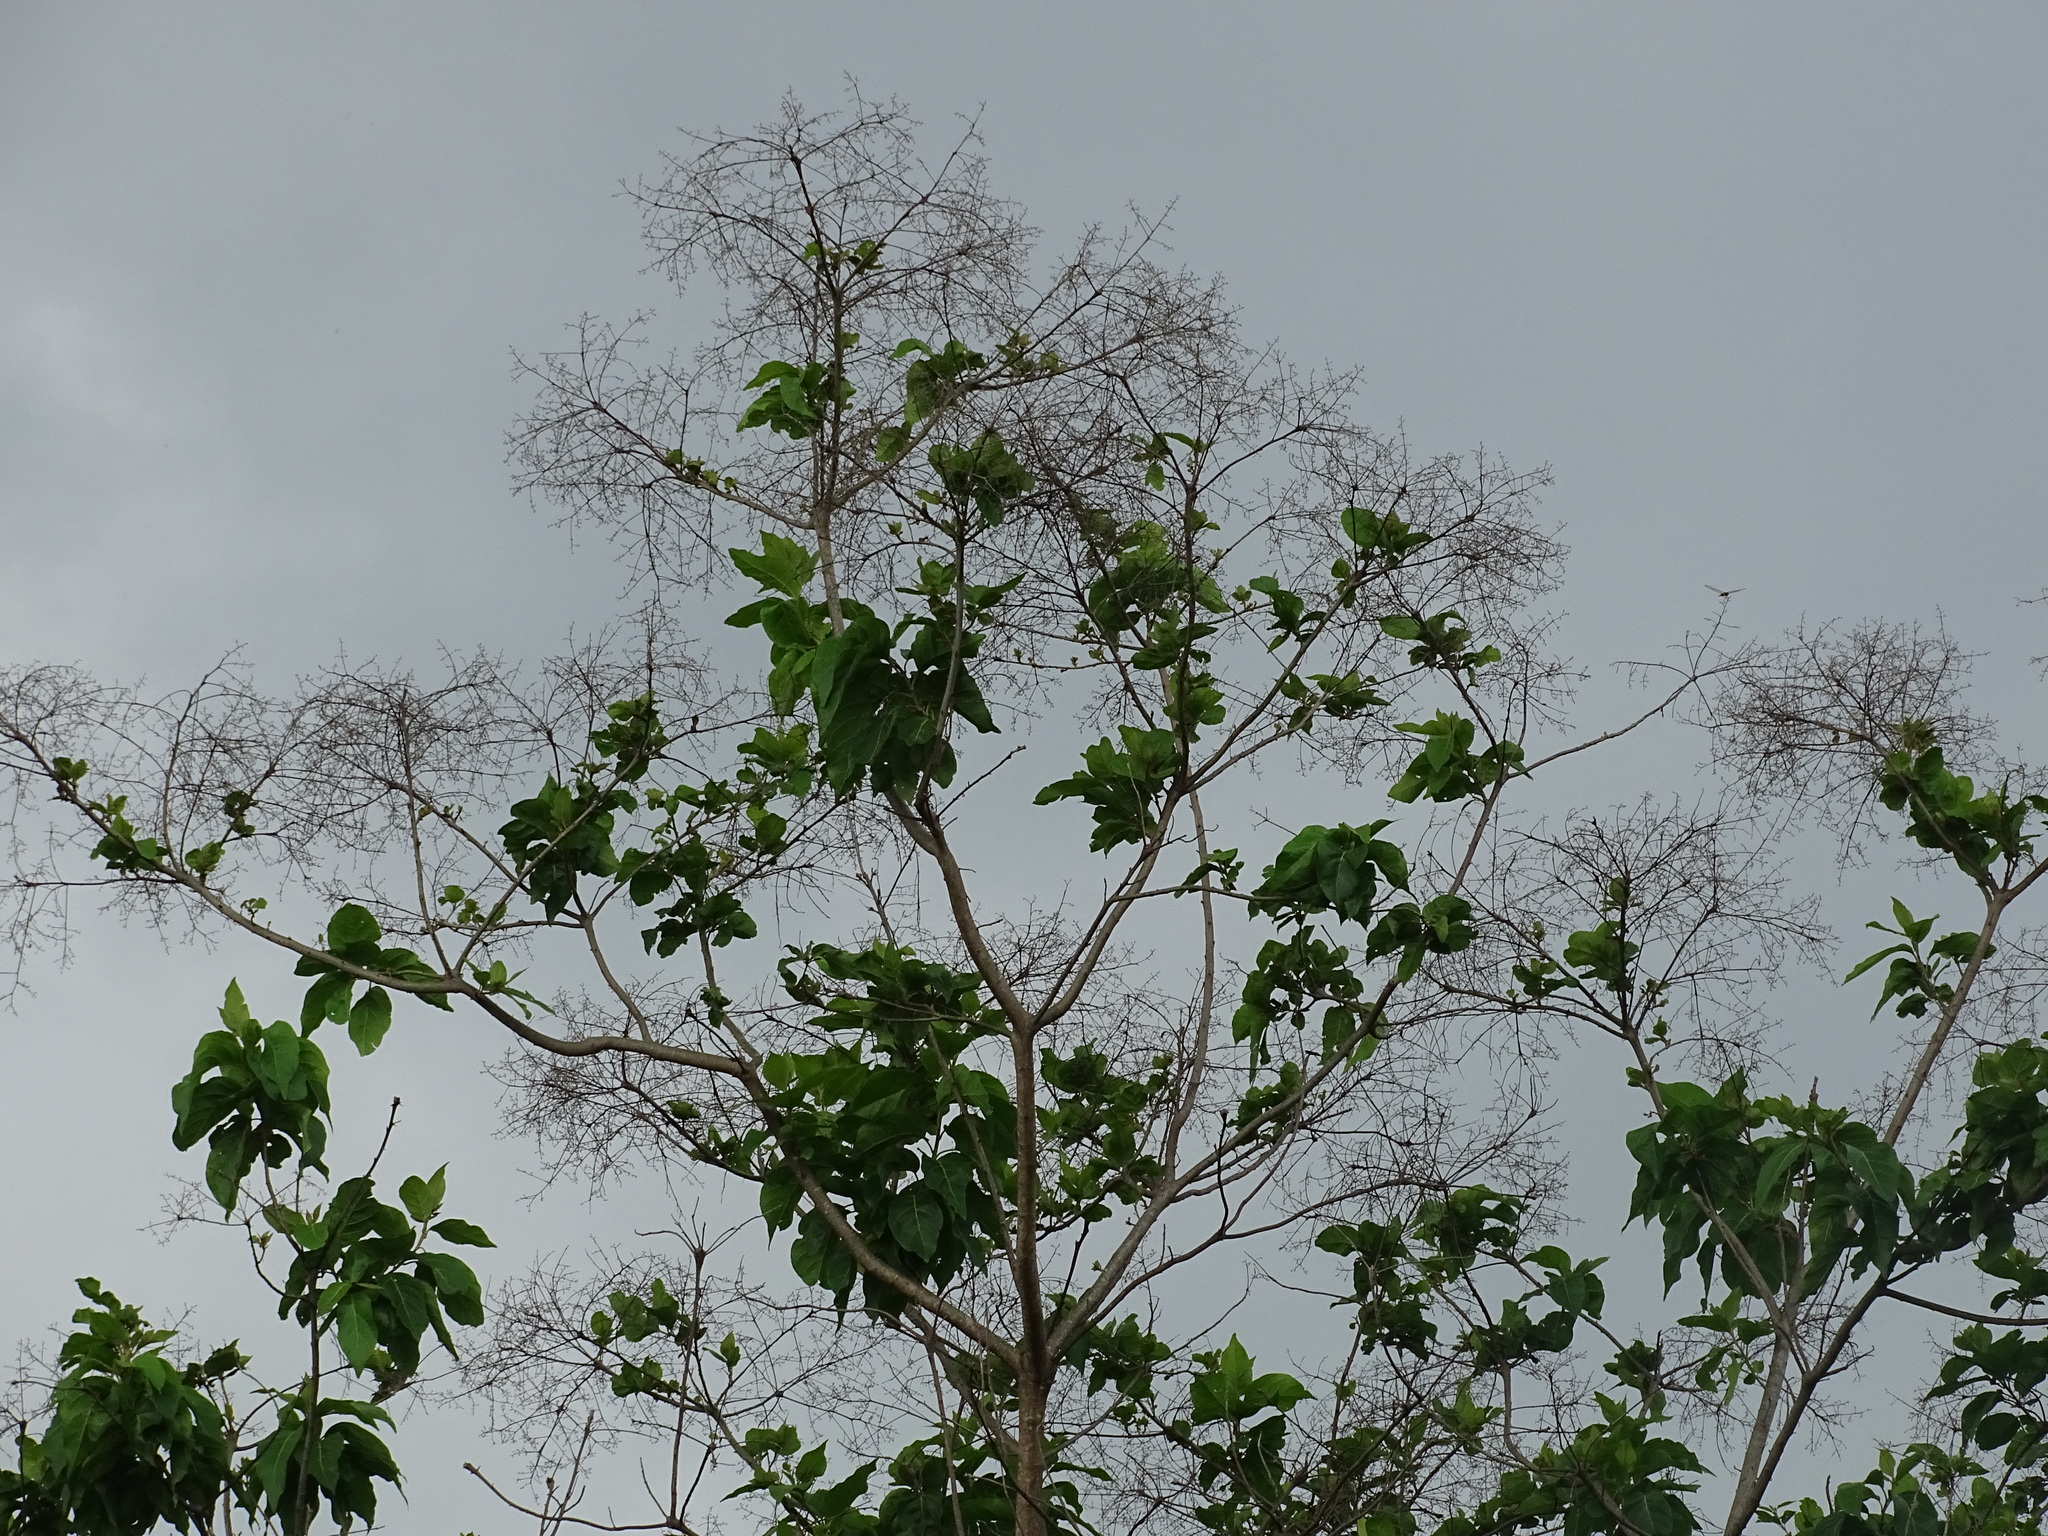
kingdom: Plantae
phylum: Tracheophyta
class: Magnoliopsida
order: Boraginales
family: Cordiaceae
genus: Cordia
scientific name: Cordia alliodora
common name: Spanish elm
